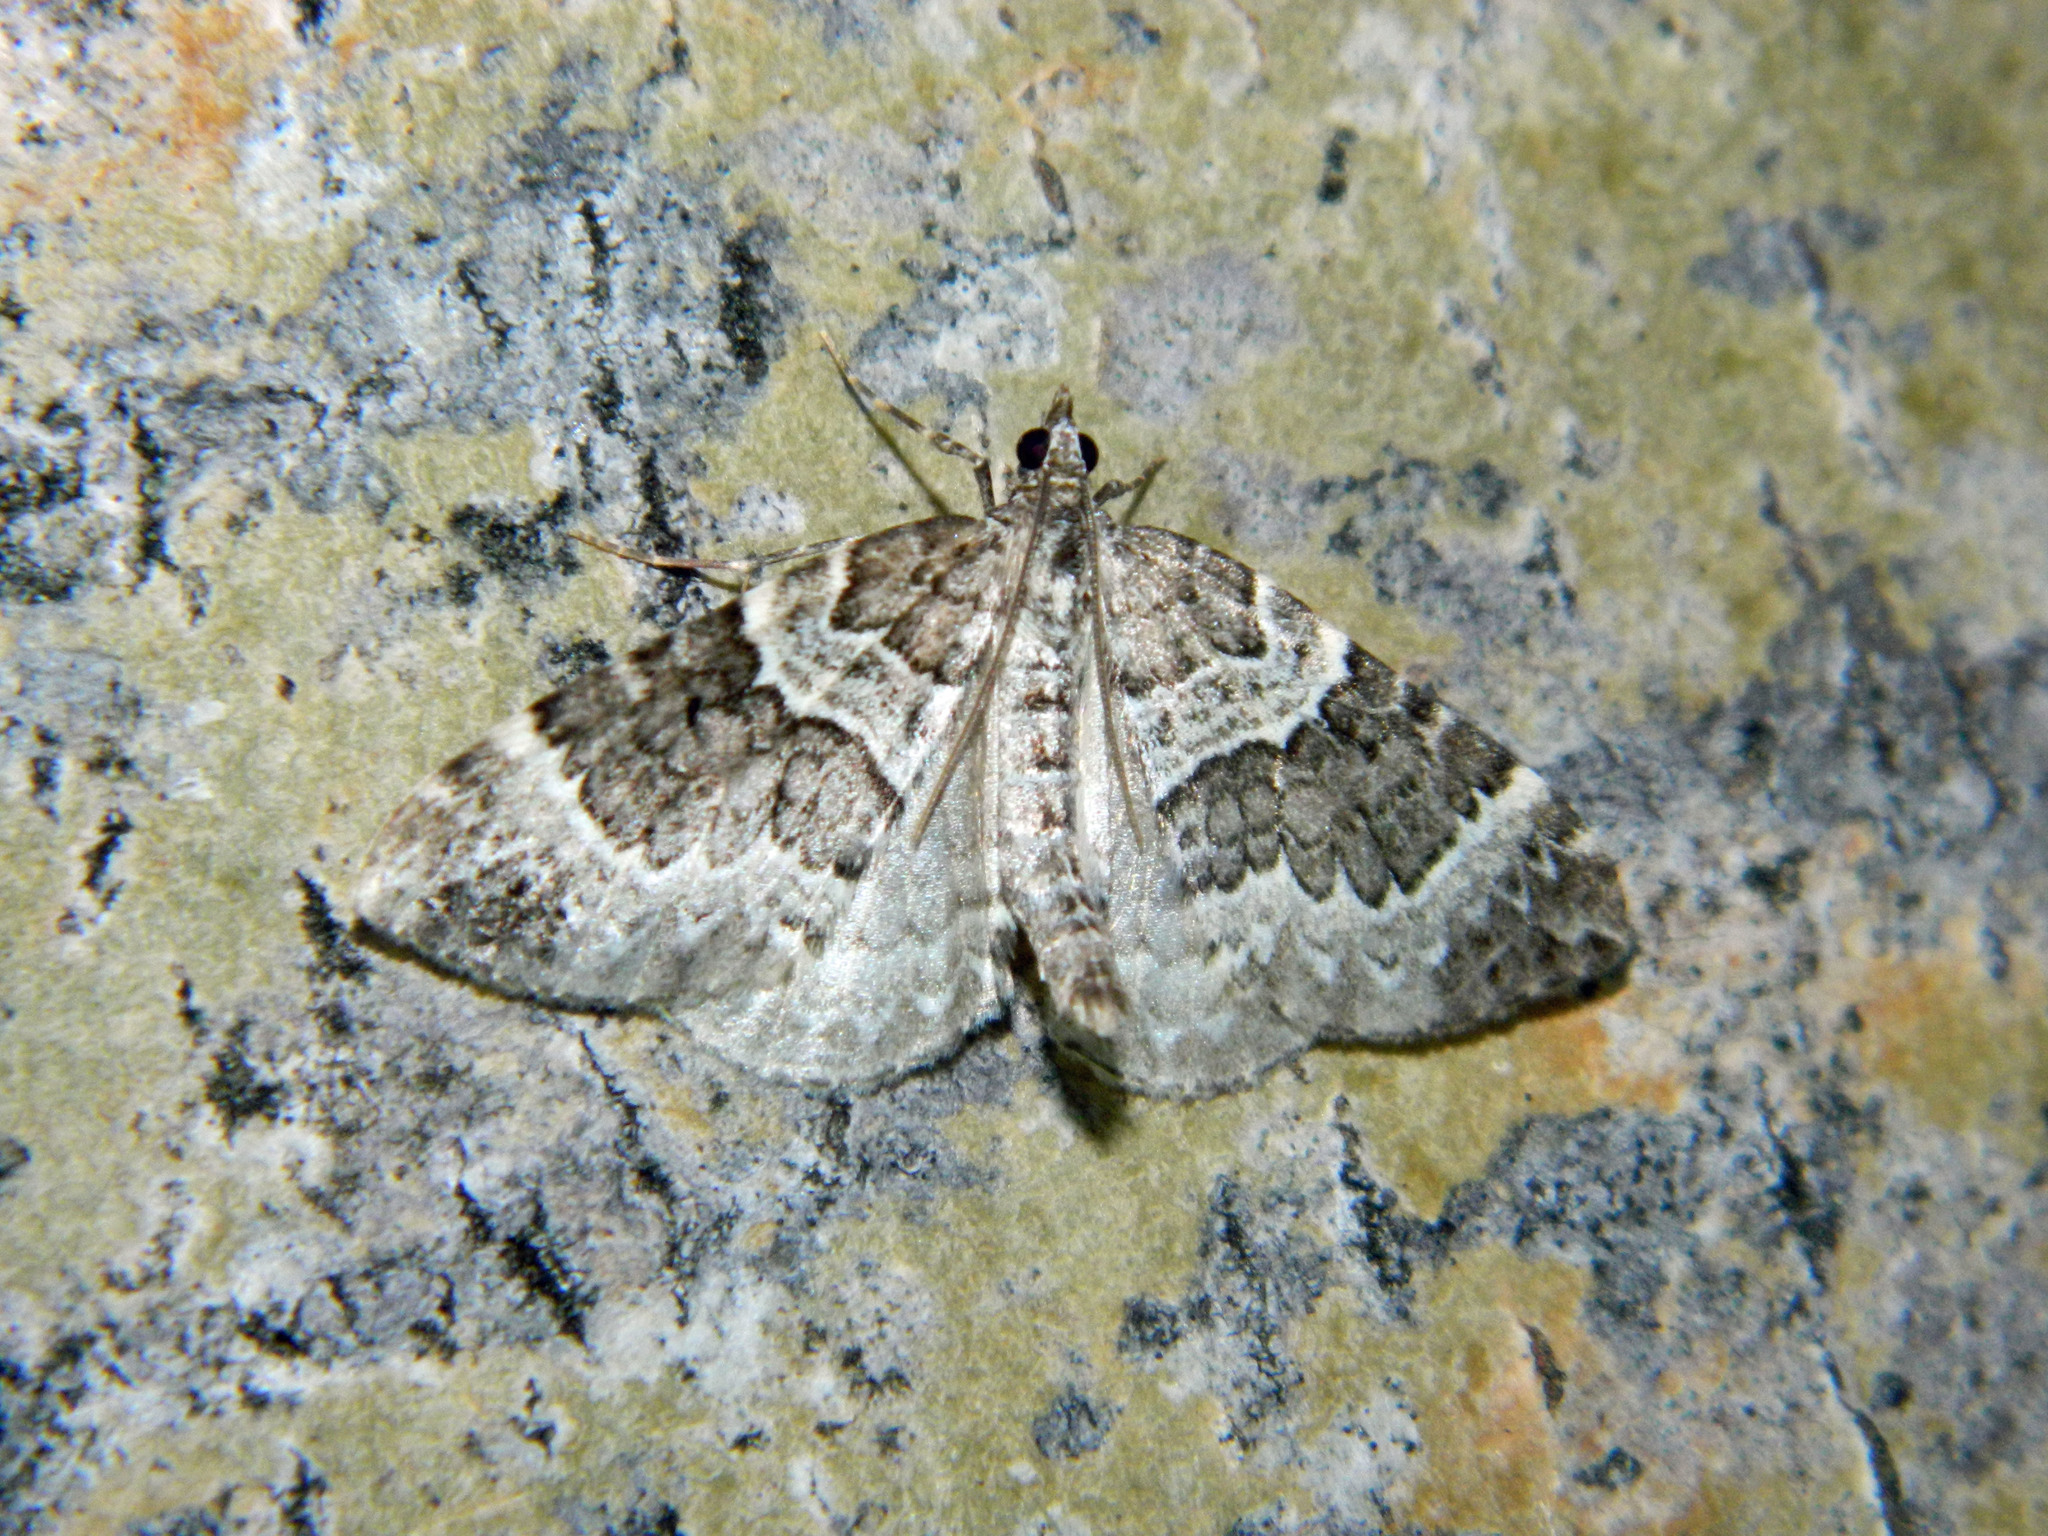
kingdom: Animalia
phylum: Arthropoda
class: Insecta
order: Lepidoptera
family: Geometridae
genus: Eulithis
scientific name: Eulithis explanata
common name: White eulithis
